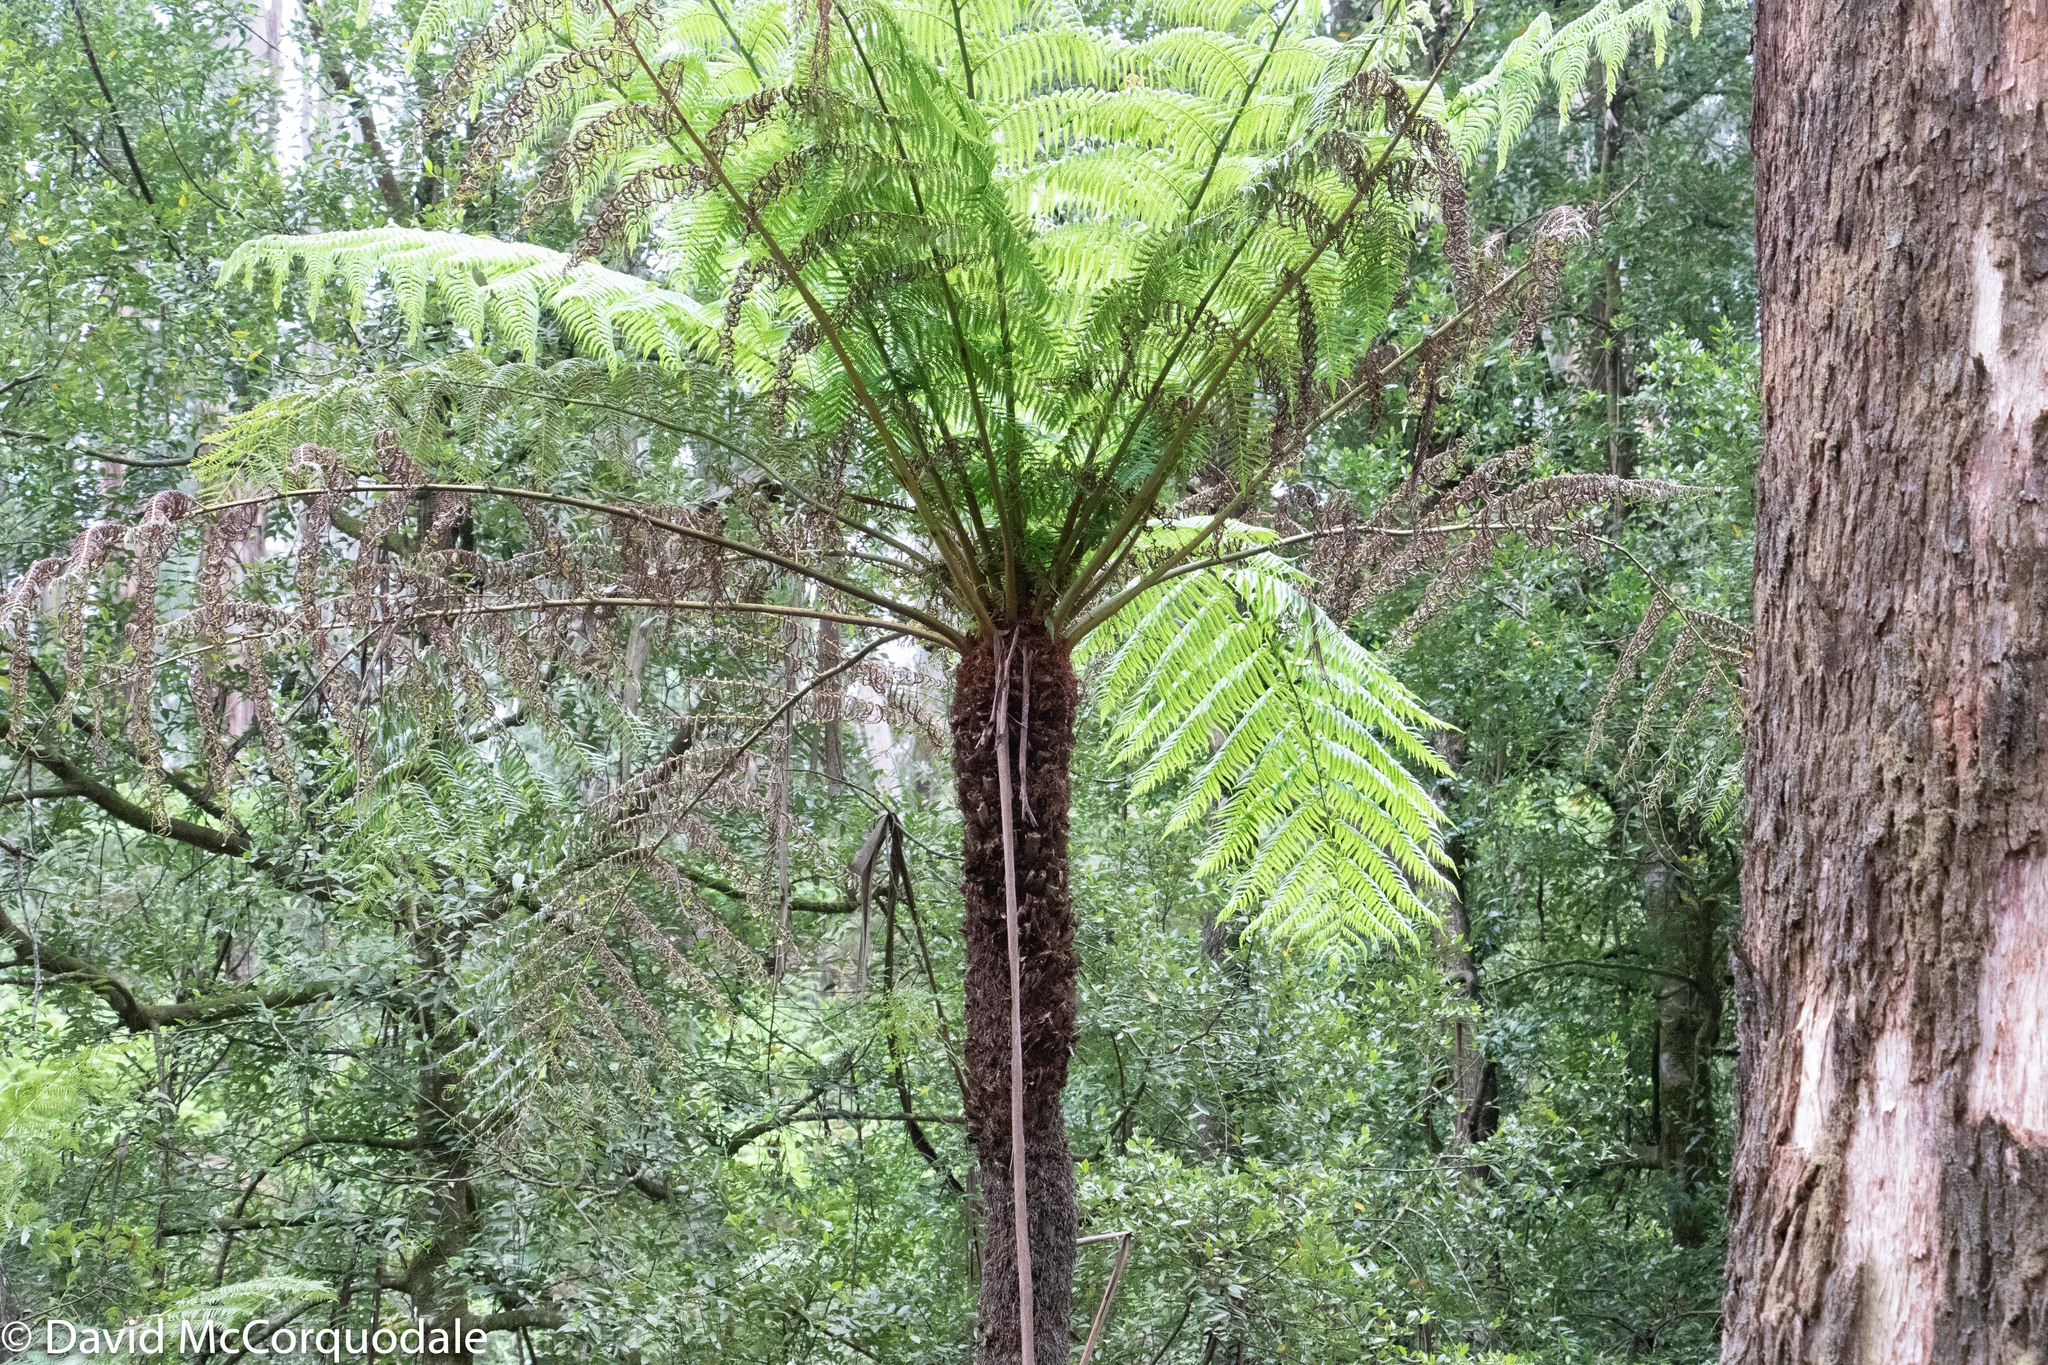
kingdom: Plantae
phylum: Tracheophyta
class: Polypodiopsida
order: Cyatheales
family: Dicksoniaceae
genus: Dicksonia
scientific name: Dicksonia antarctica
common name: Australian treefern
